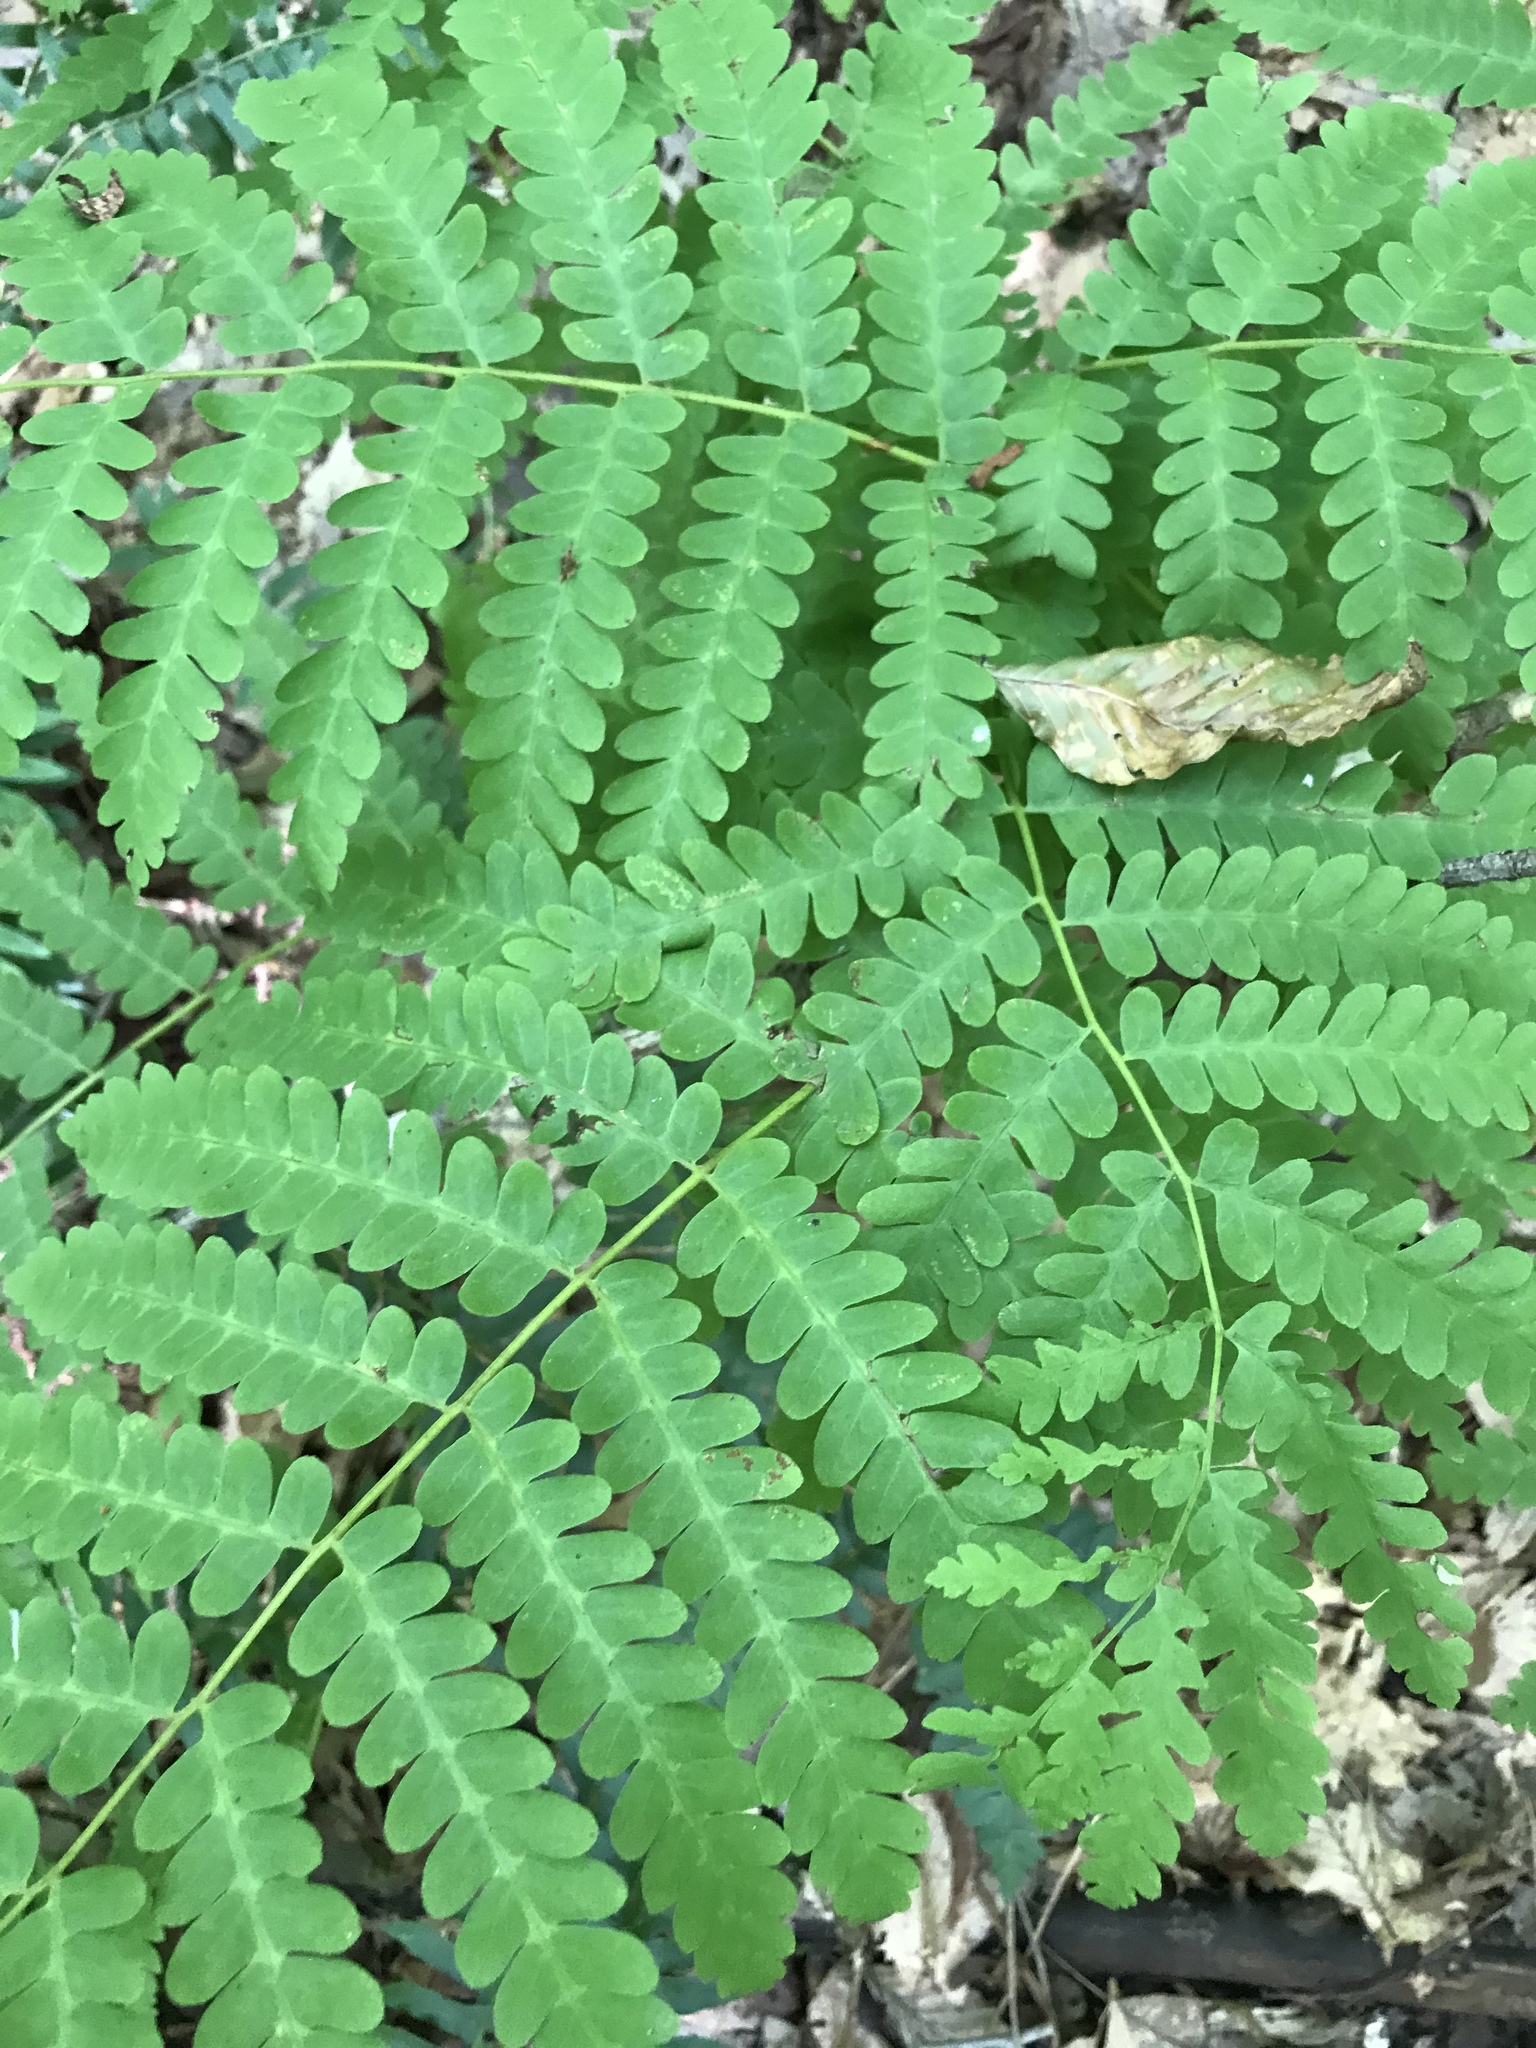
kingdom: Plantae
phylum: Tracheophyta
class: Polypodiopsida
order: Osmundales
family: Osmundaceae
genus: Claytosmunda
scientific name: Claytosmunda claytoniana
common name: Clayton's fern
